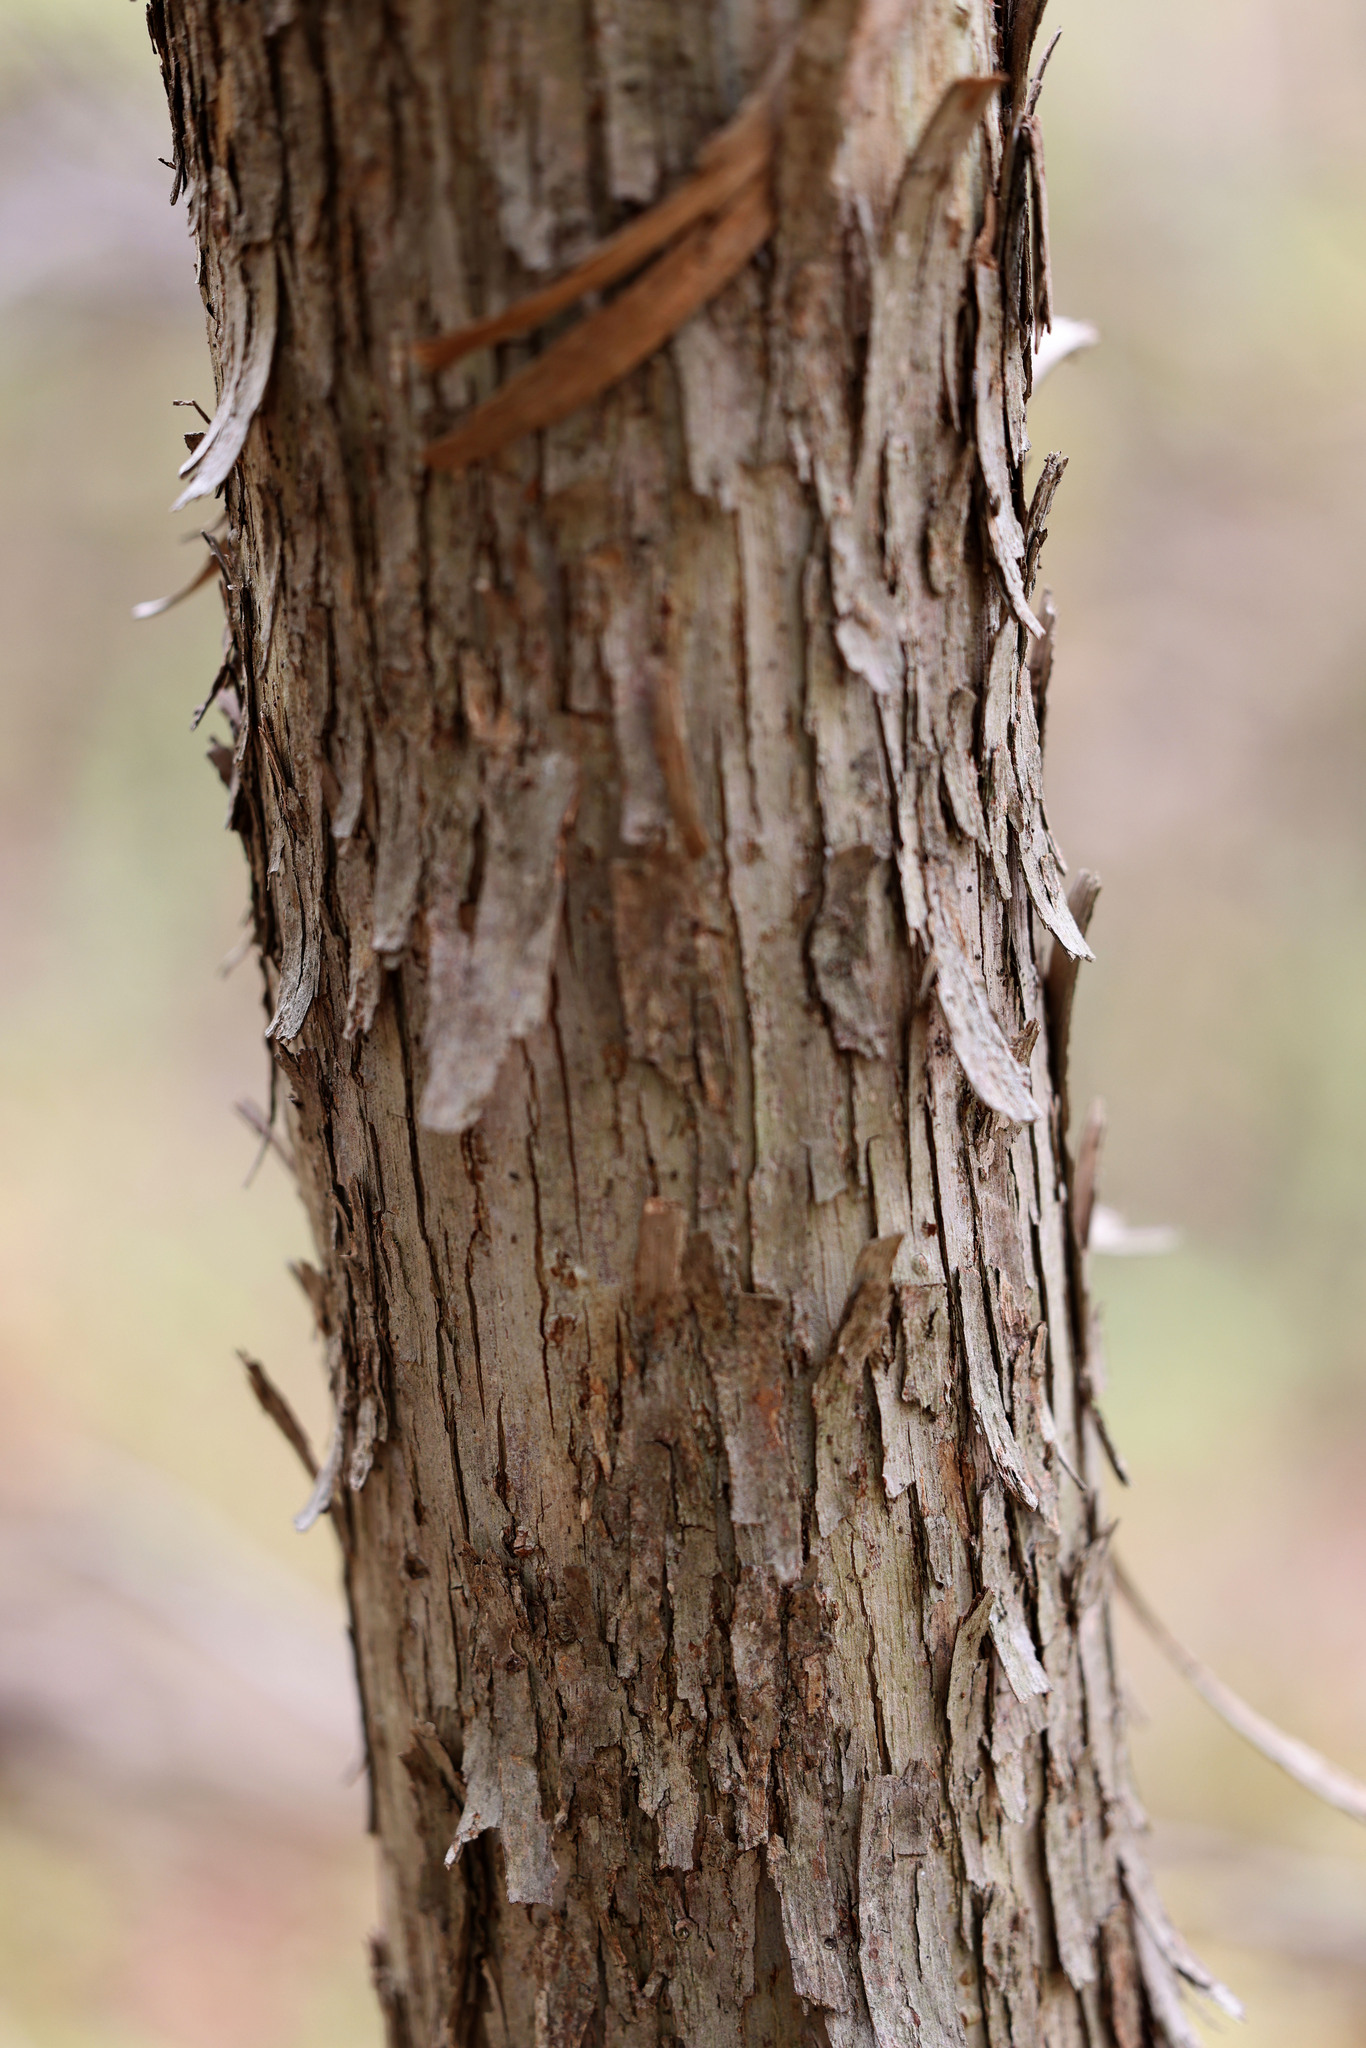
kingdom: Plantae
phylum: Tracheophyta
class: Magnoliopsida
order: Fagales
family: Betulaceae
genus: Ostrya
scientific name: Ostrya virginiana
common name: Ironwood
